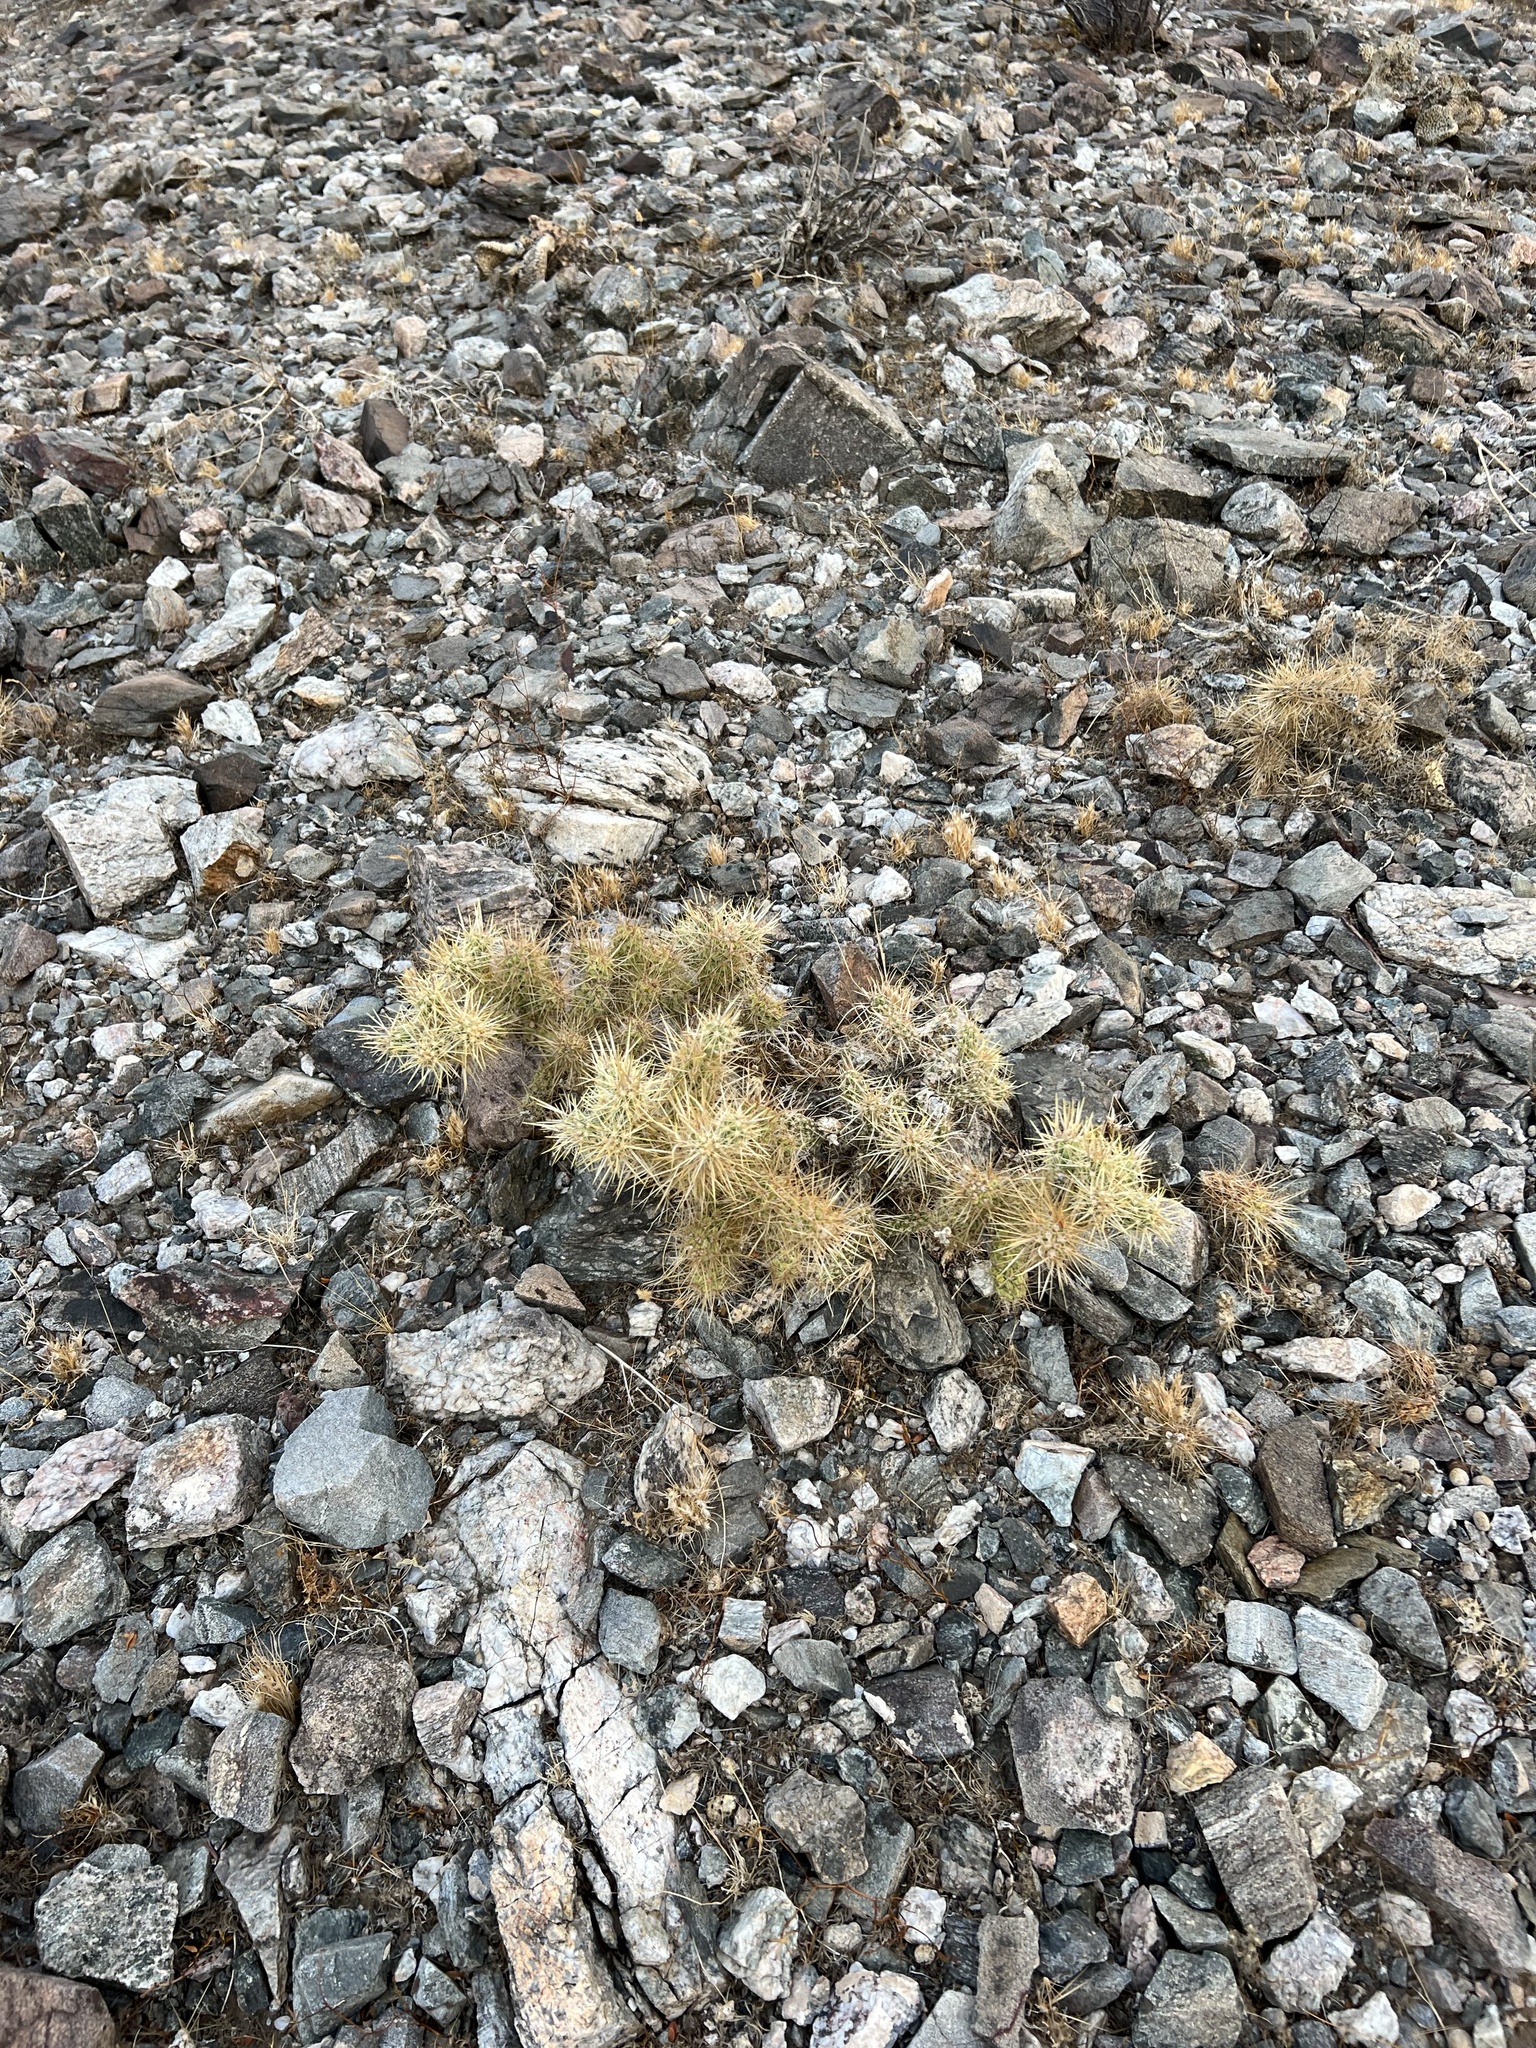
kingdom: Plantae
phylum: Tracheophyta
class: Magnoliopsida
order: Caryophyllales
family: Cactaceae
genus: Cylindropuntia
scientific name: Cylindropuntia echinocarpa
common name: Ground cholla
